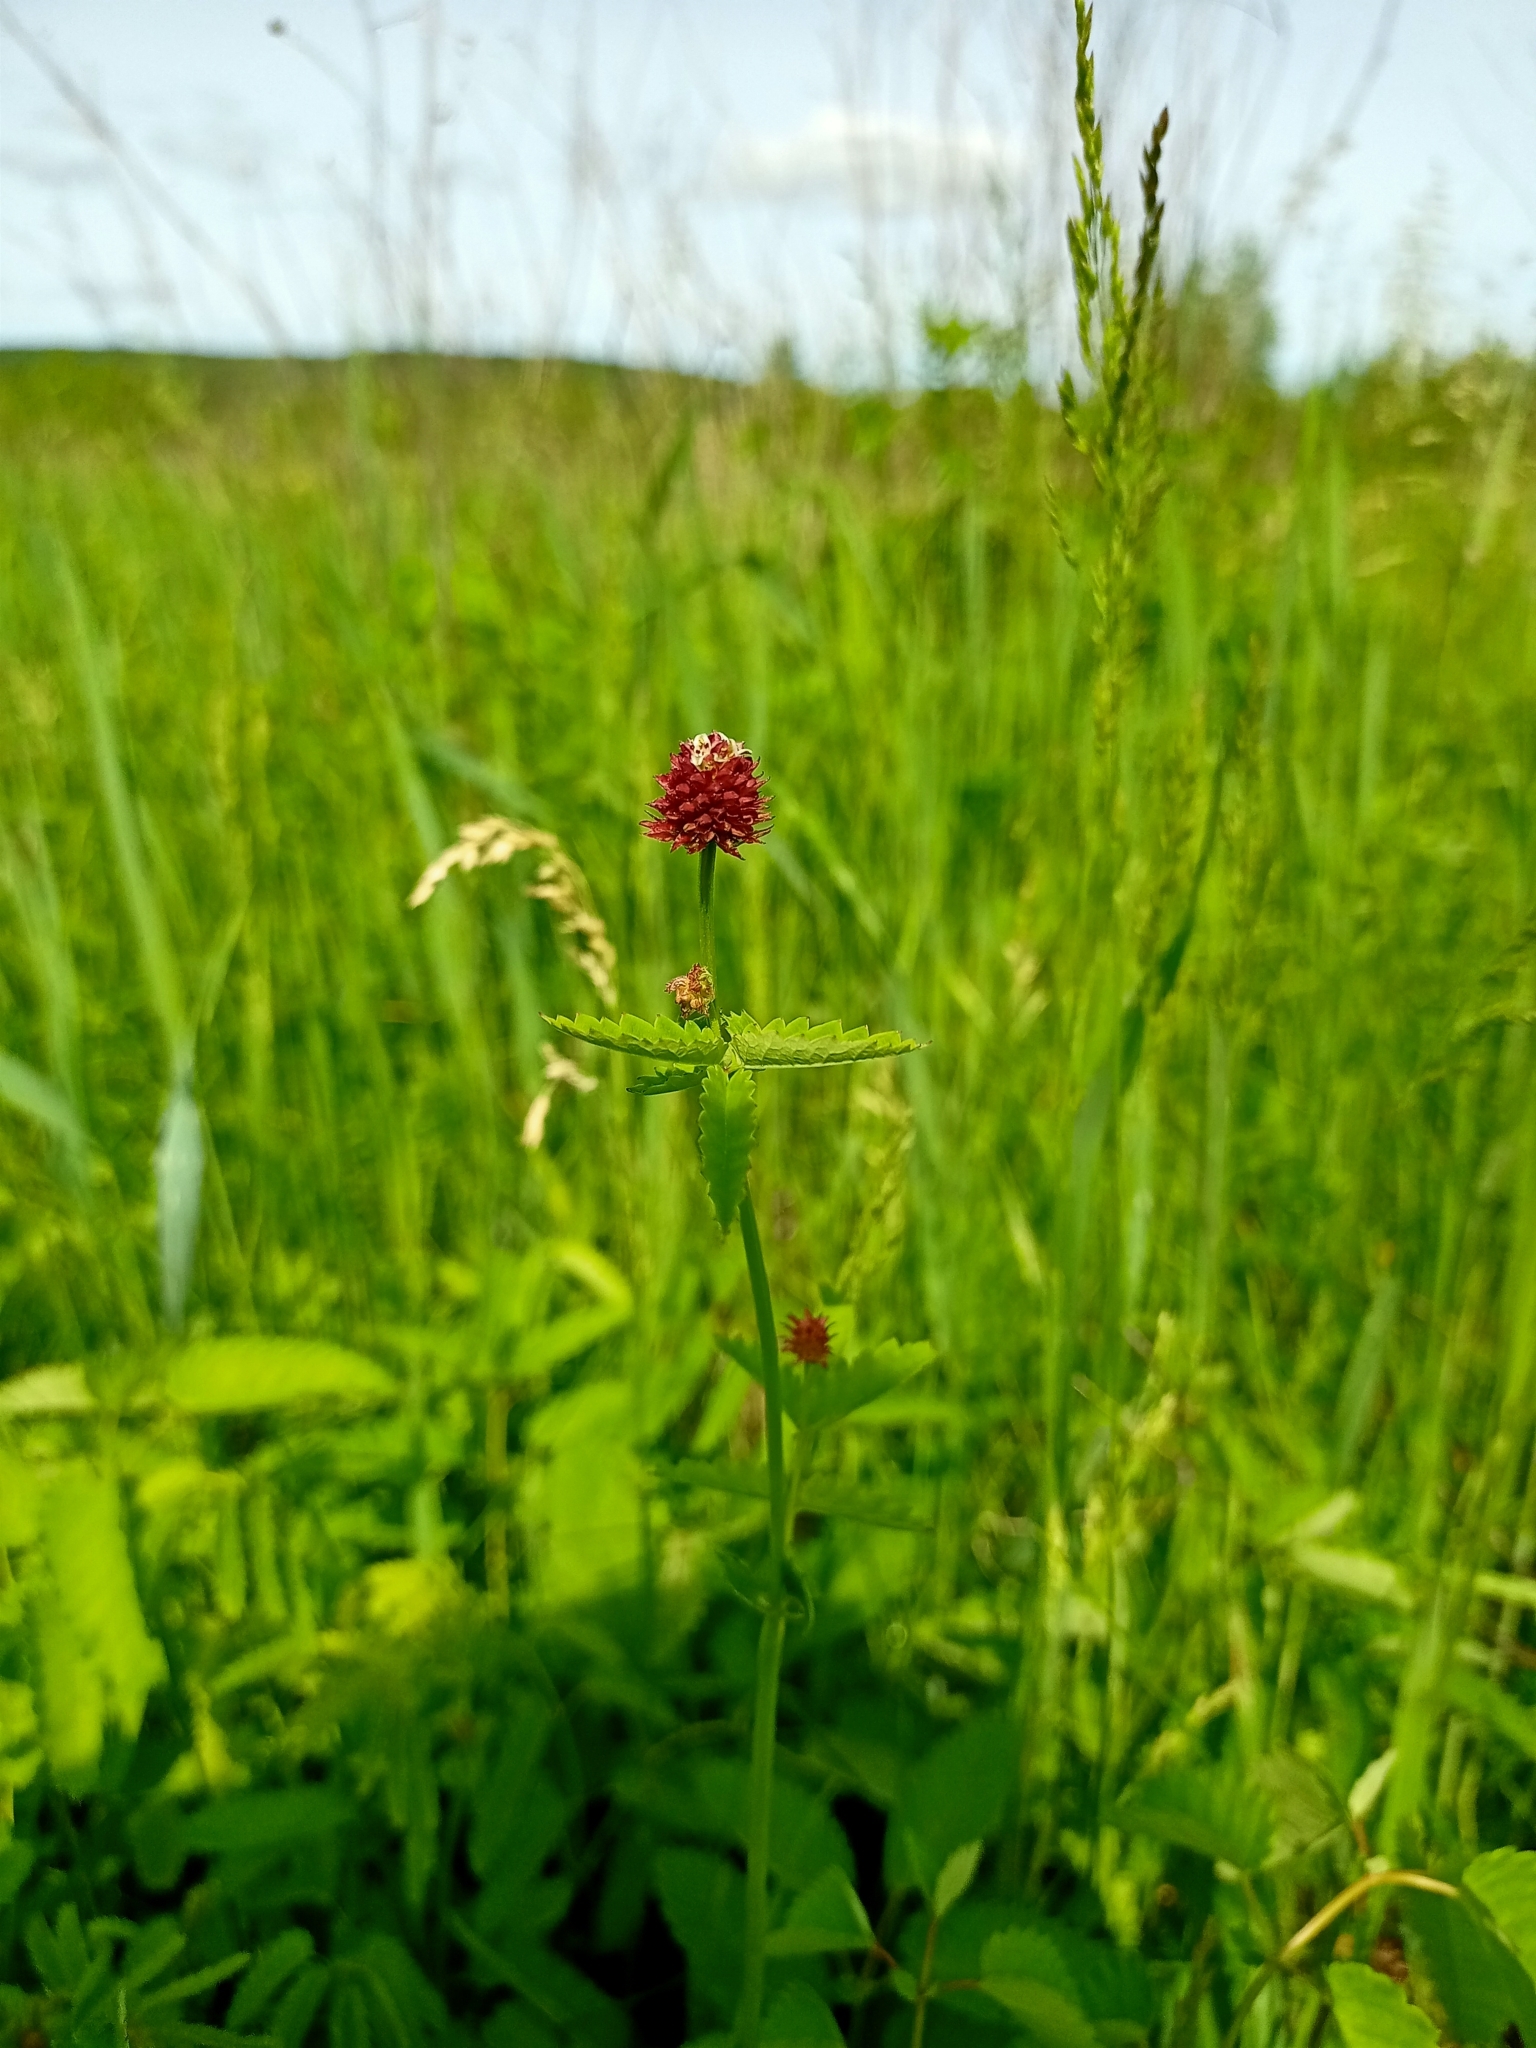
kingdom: Plantae
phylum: Tracheophyta
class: Magnoliopsida
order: Rosales
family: Rosaceae
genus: Sanguisorba
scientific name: Sanguisorba officinalis
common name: Great burnet
